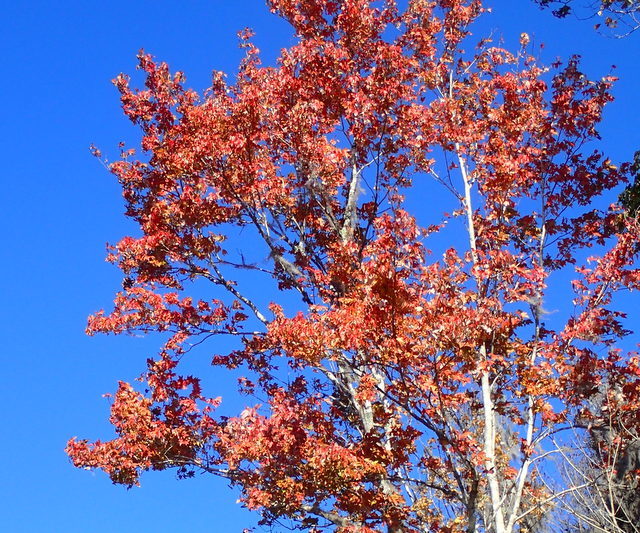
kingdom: Plantae
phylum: Tracheophyta
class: Magnoliopsida
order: Sapindales
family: Sapindaceae
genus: Acer
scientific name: Acer rubrum
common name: Red maple
